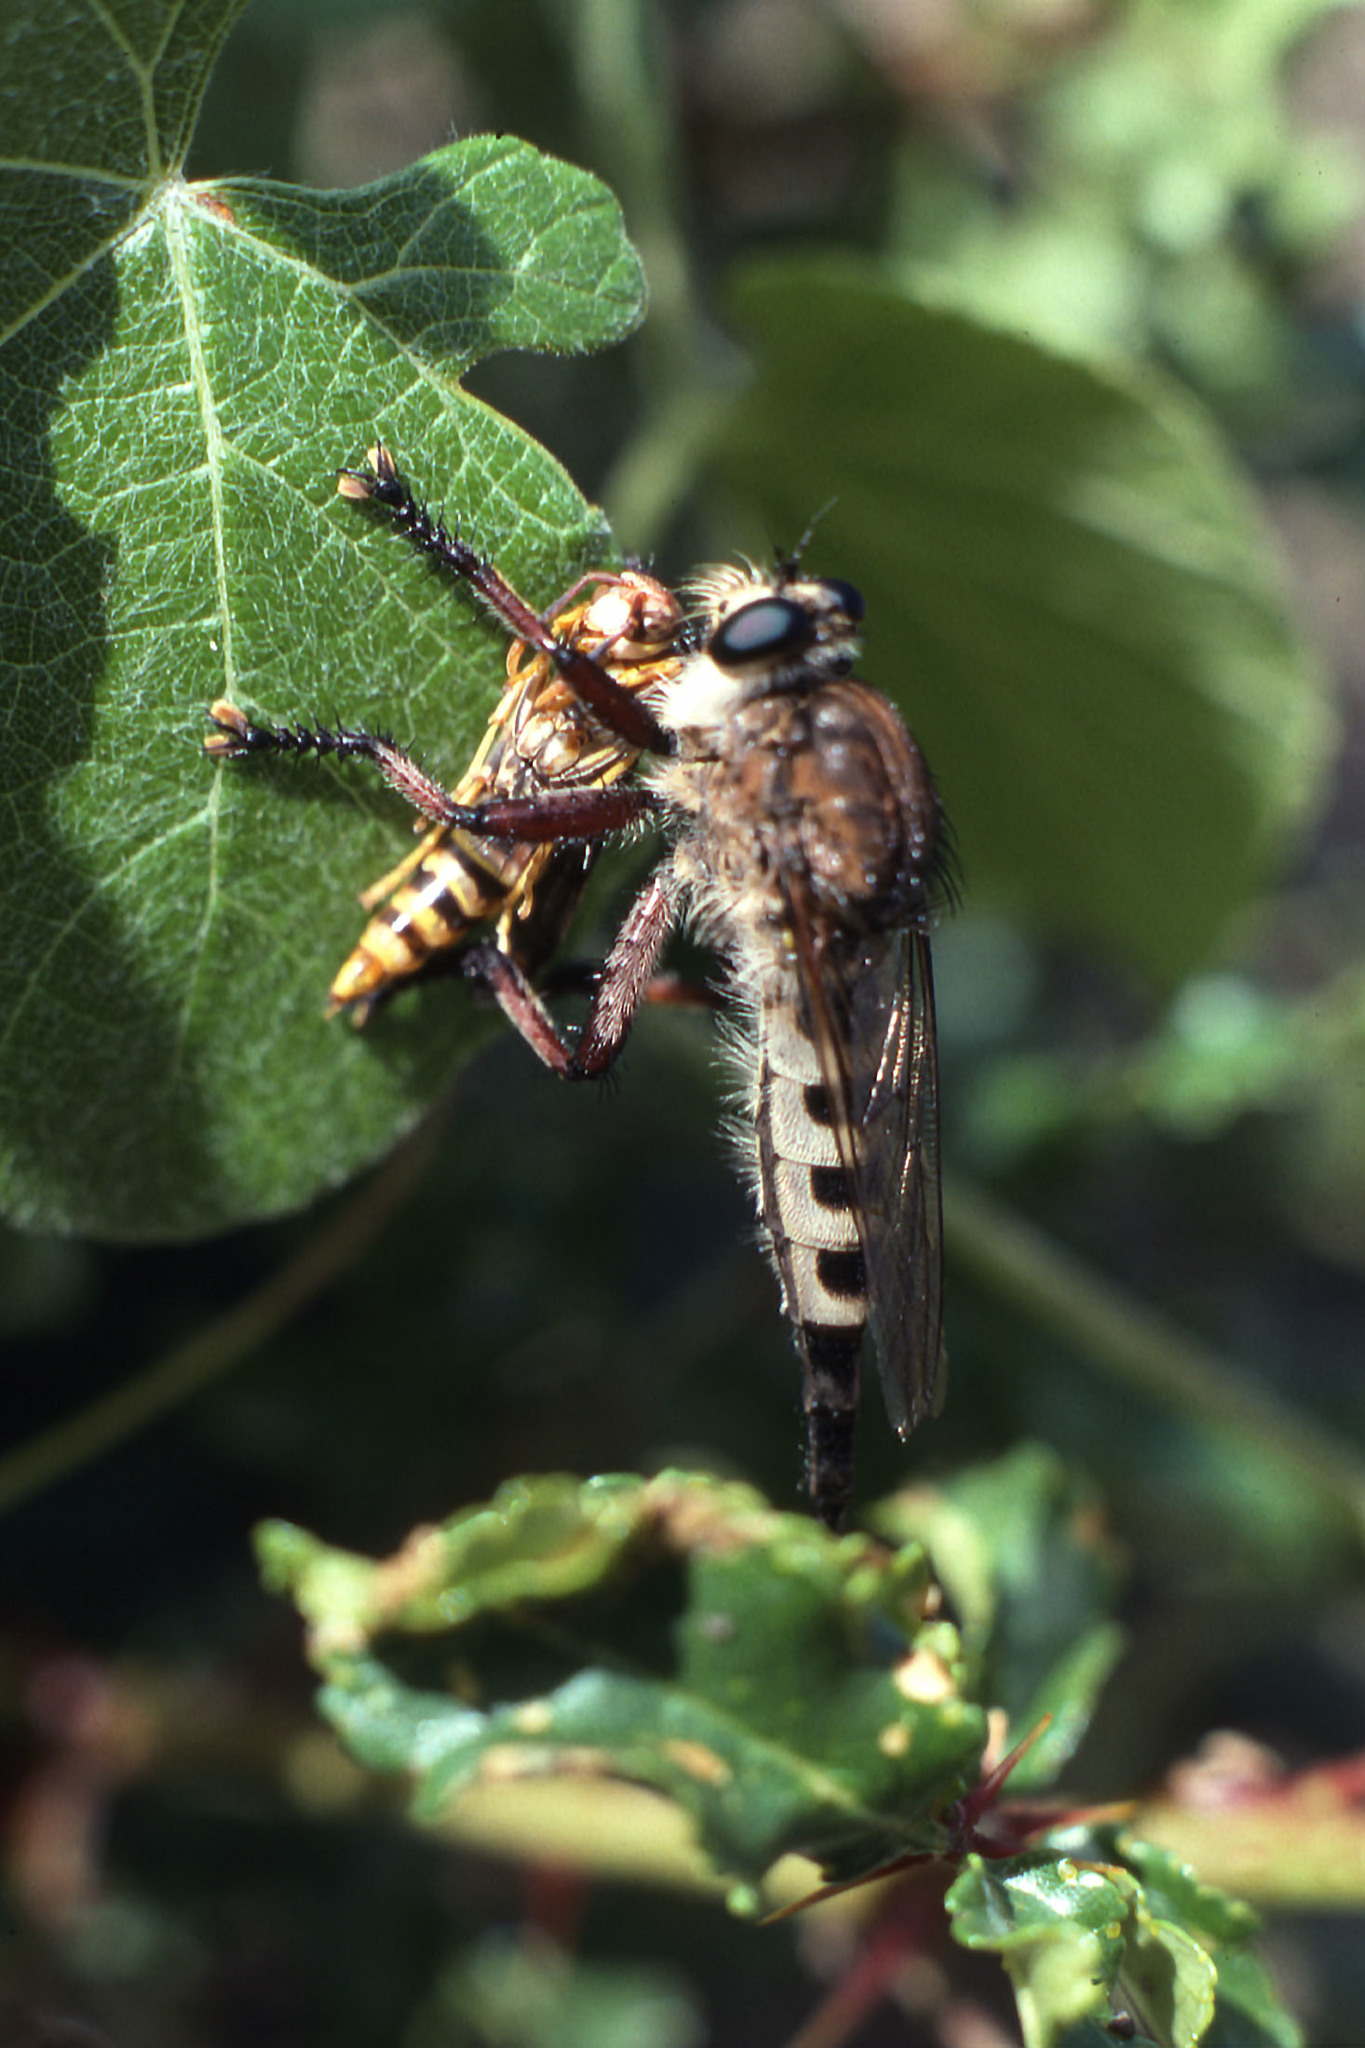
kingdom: Animalia
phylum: Arthropoda
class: Insecta
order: Diptera
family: Asilidae
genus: Promachus
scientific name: Promachus hinei
